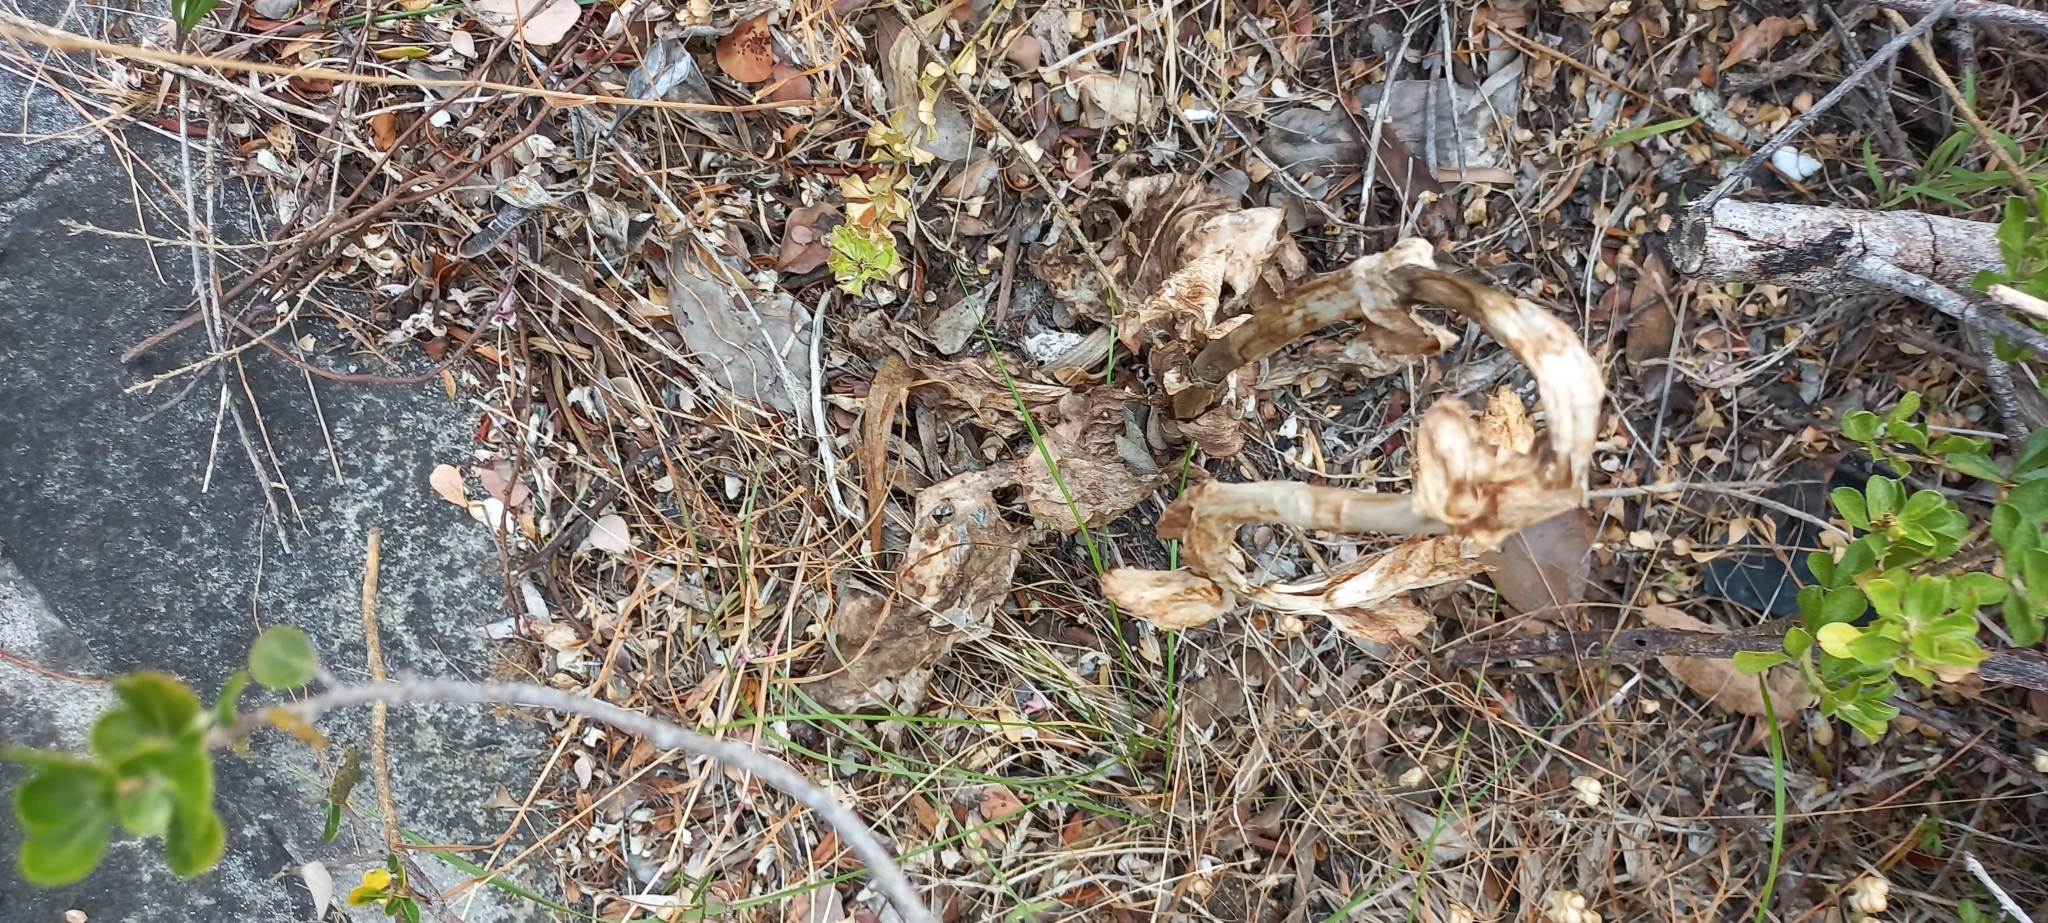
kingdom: Plantae
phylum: Tracheophyta
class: Liliopsida
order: Asparagales
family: Orchidaceae
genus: Satyrium
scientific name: Satyrium carneum
